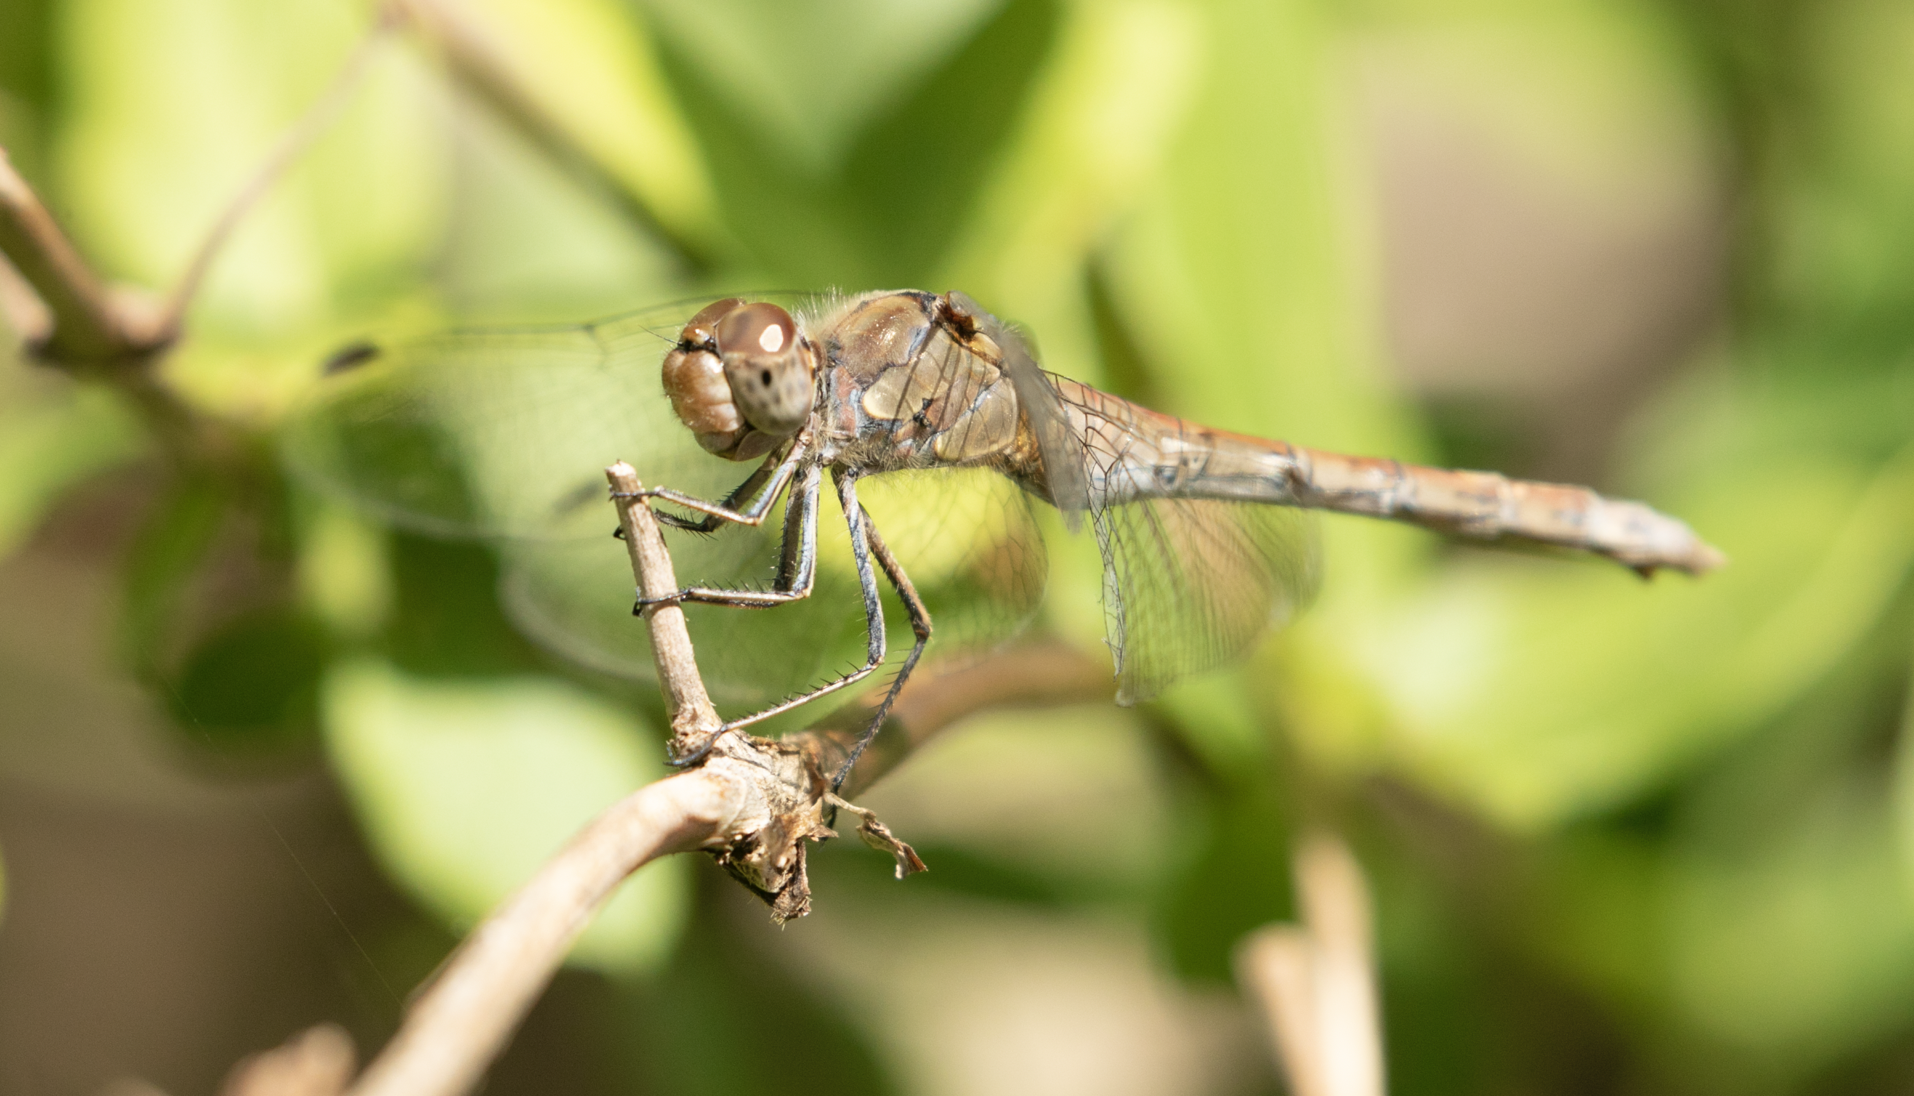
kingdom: Animalia
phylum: Arthropoda
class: Insecta
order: Odonata
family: Libellulidae
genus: Sympetrum
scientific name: Sympetrum striolatum
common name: Common darter
